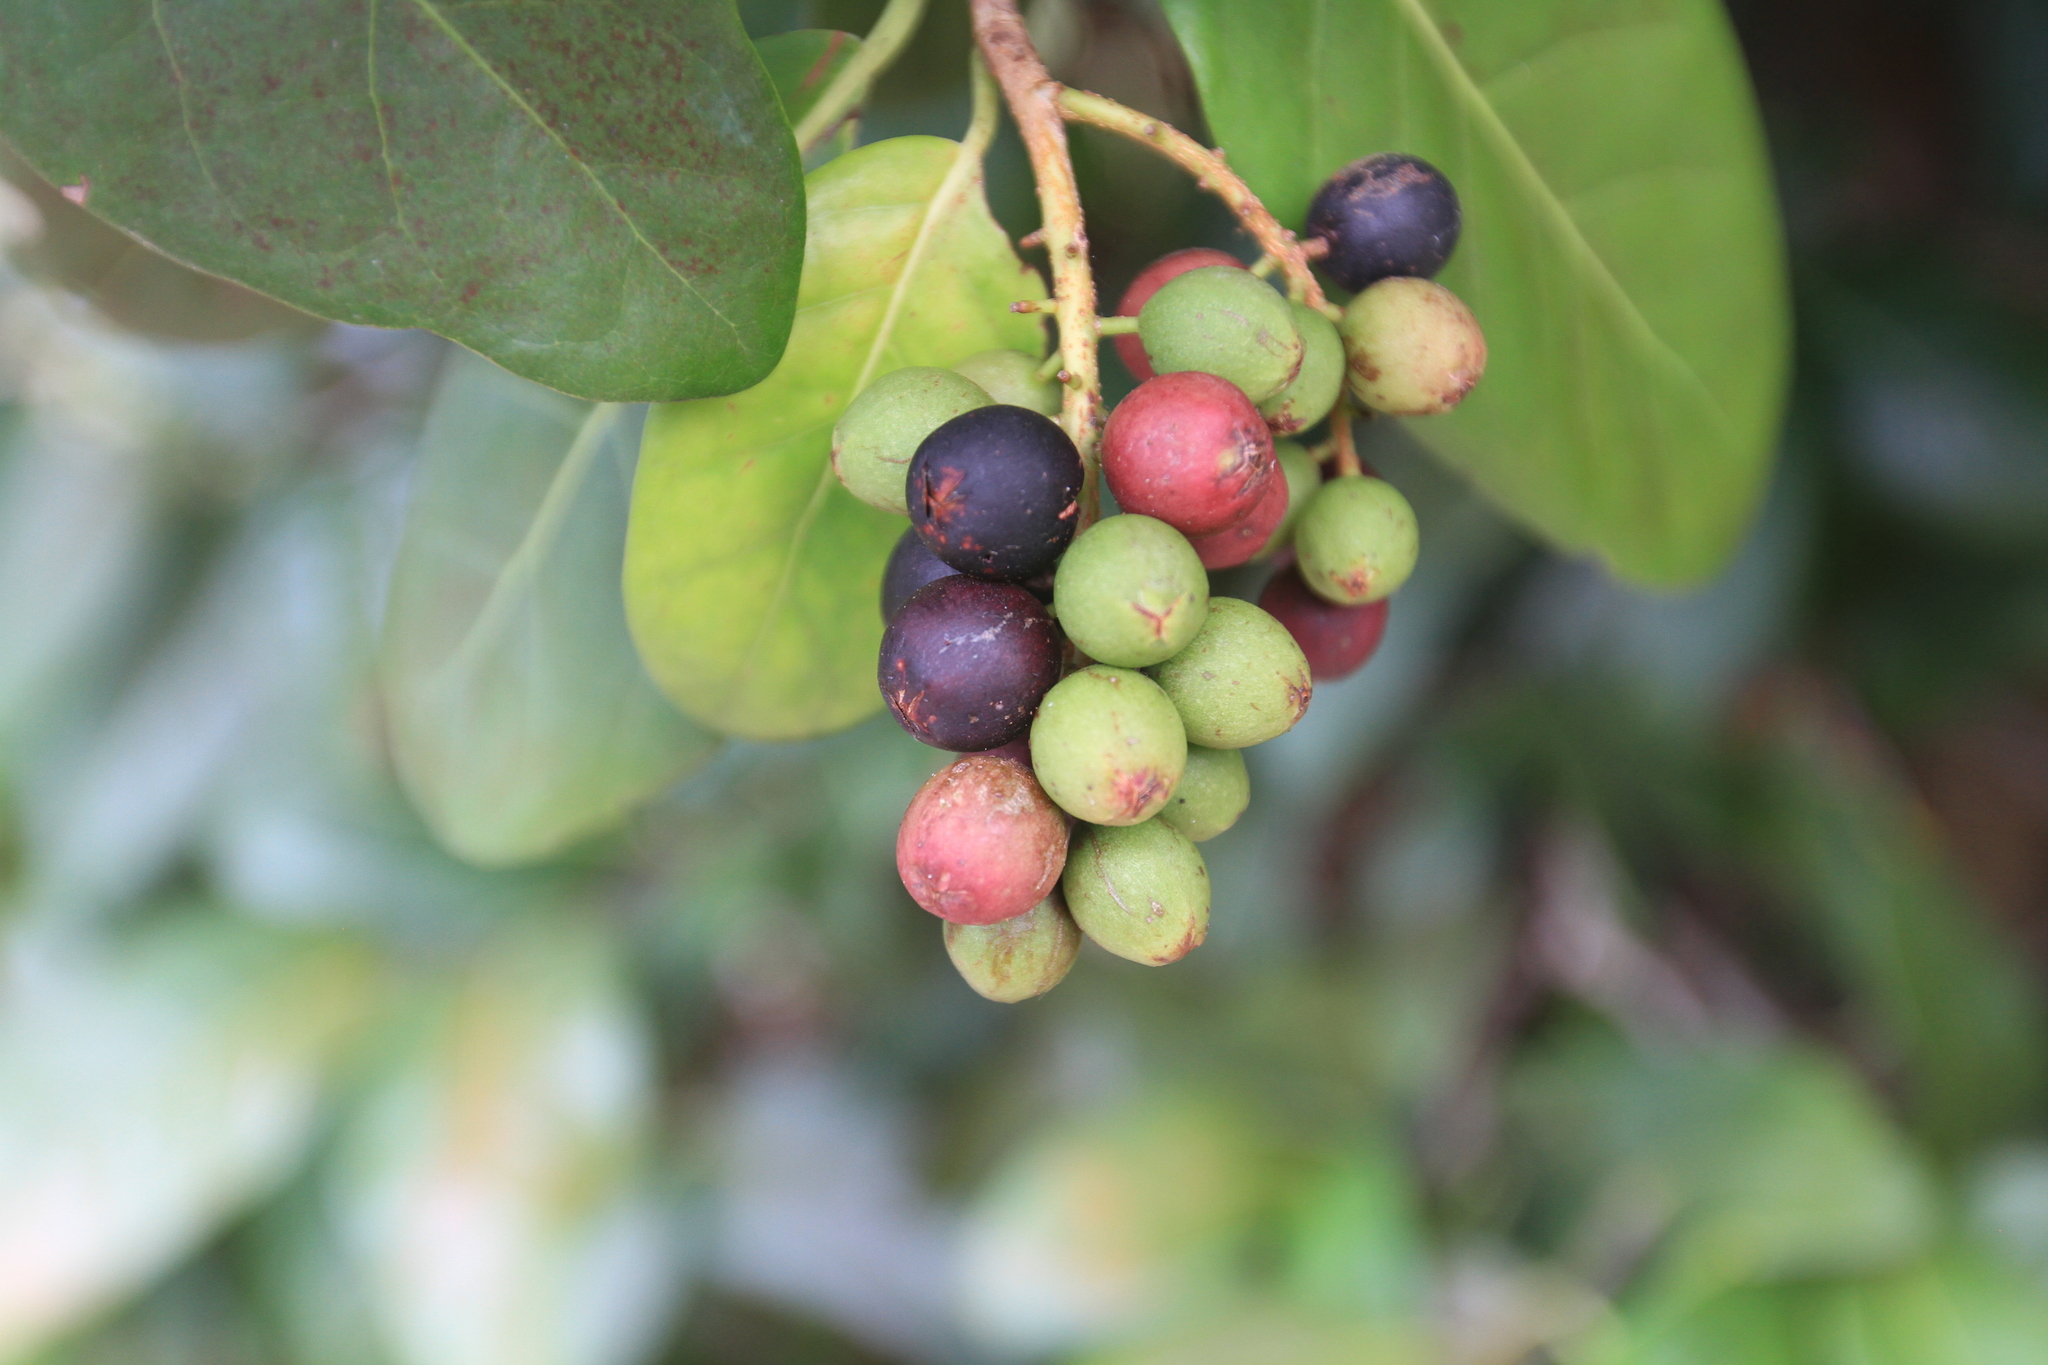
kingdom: Plantae
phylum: Tracheophyta
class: Magnoliopsida
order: Caryophyllales
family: Polygonaceae
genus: Coccoloba
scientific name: Coccoloba diversifolia
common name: Pigeon-plum
